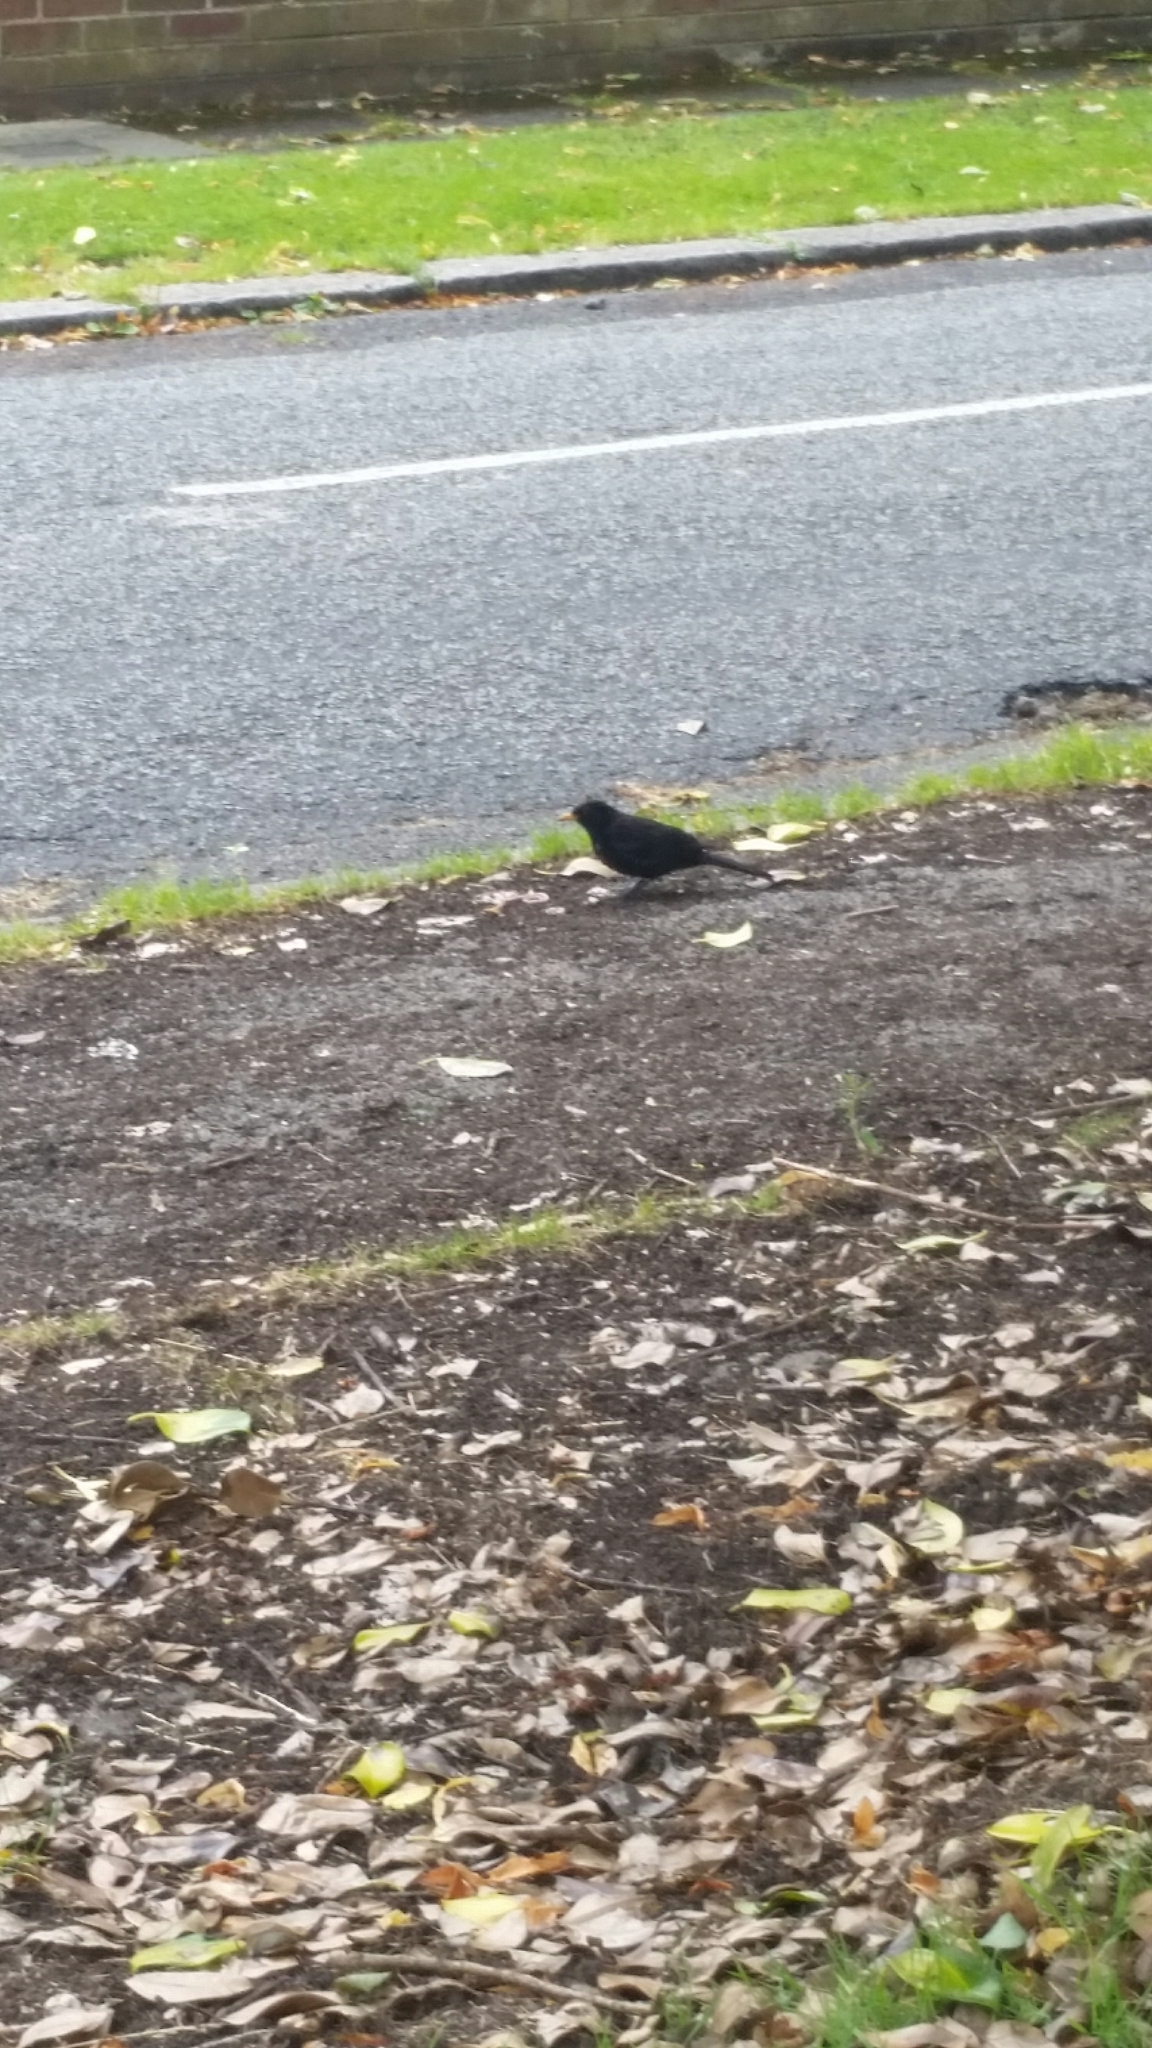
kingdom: Animalia
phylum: Chordata
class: Aves
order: Passeriformes
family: Turdidae
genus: Turdus
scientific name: Turdus merula
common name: Common blackbird
